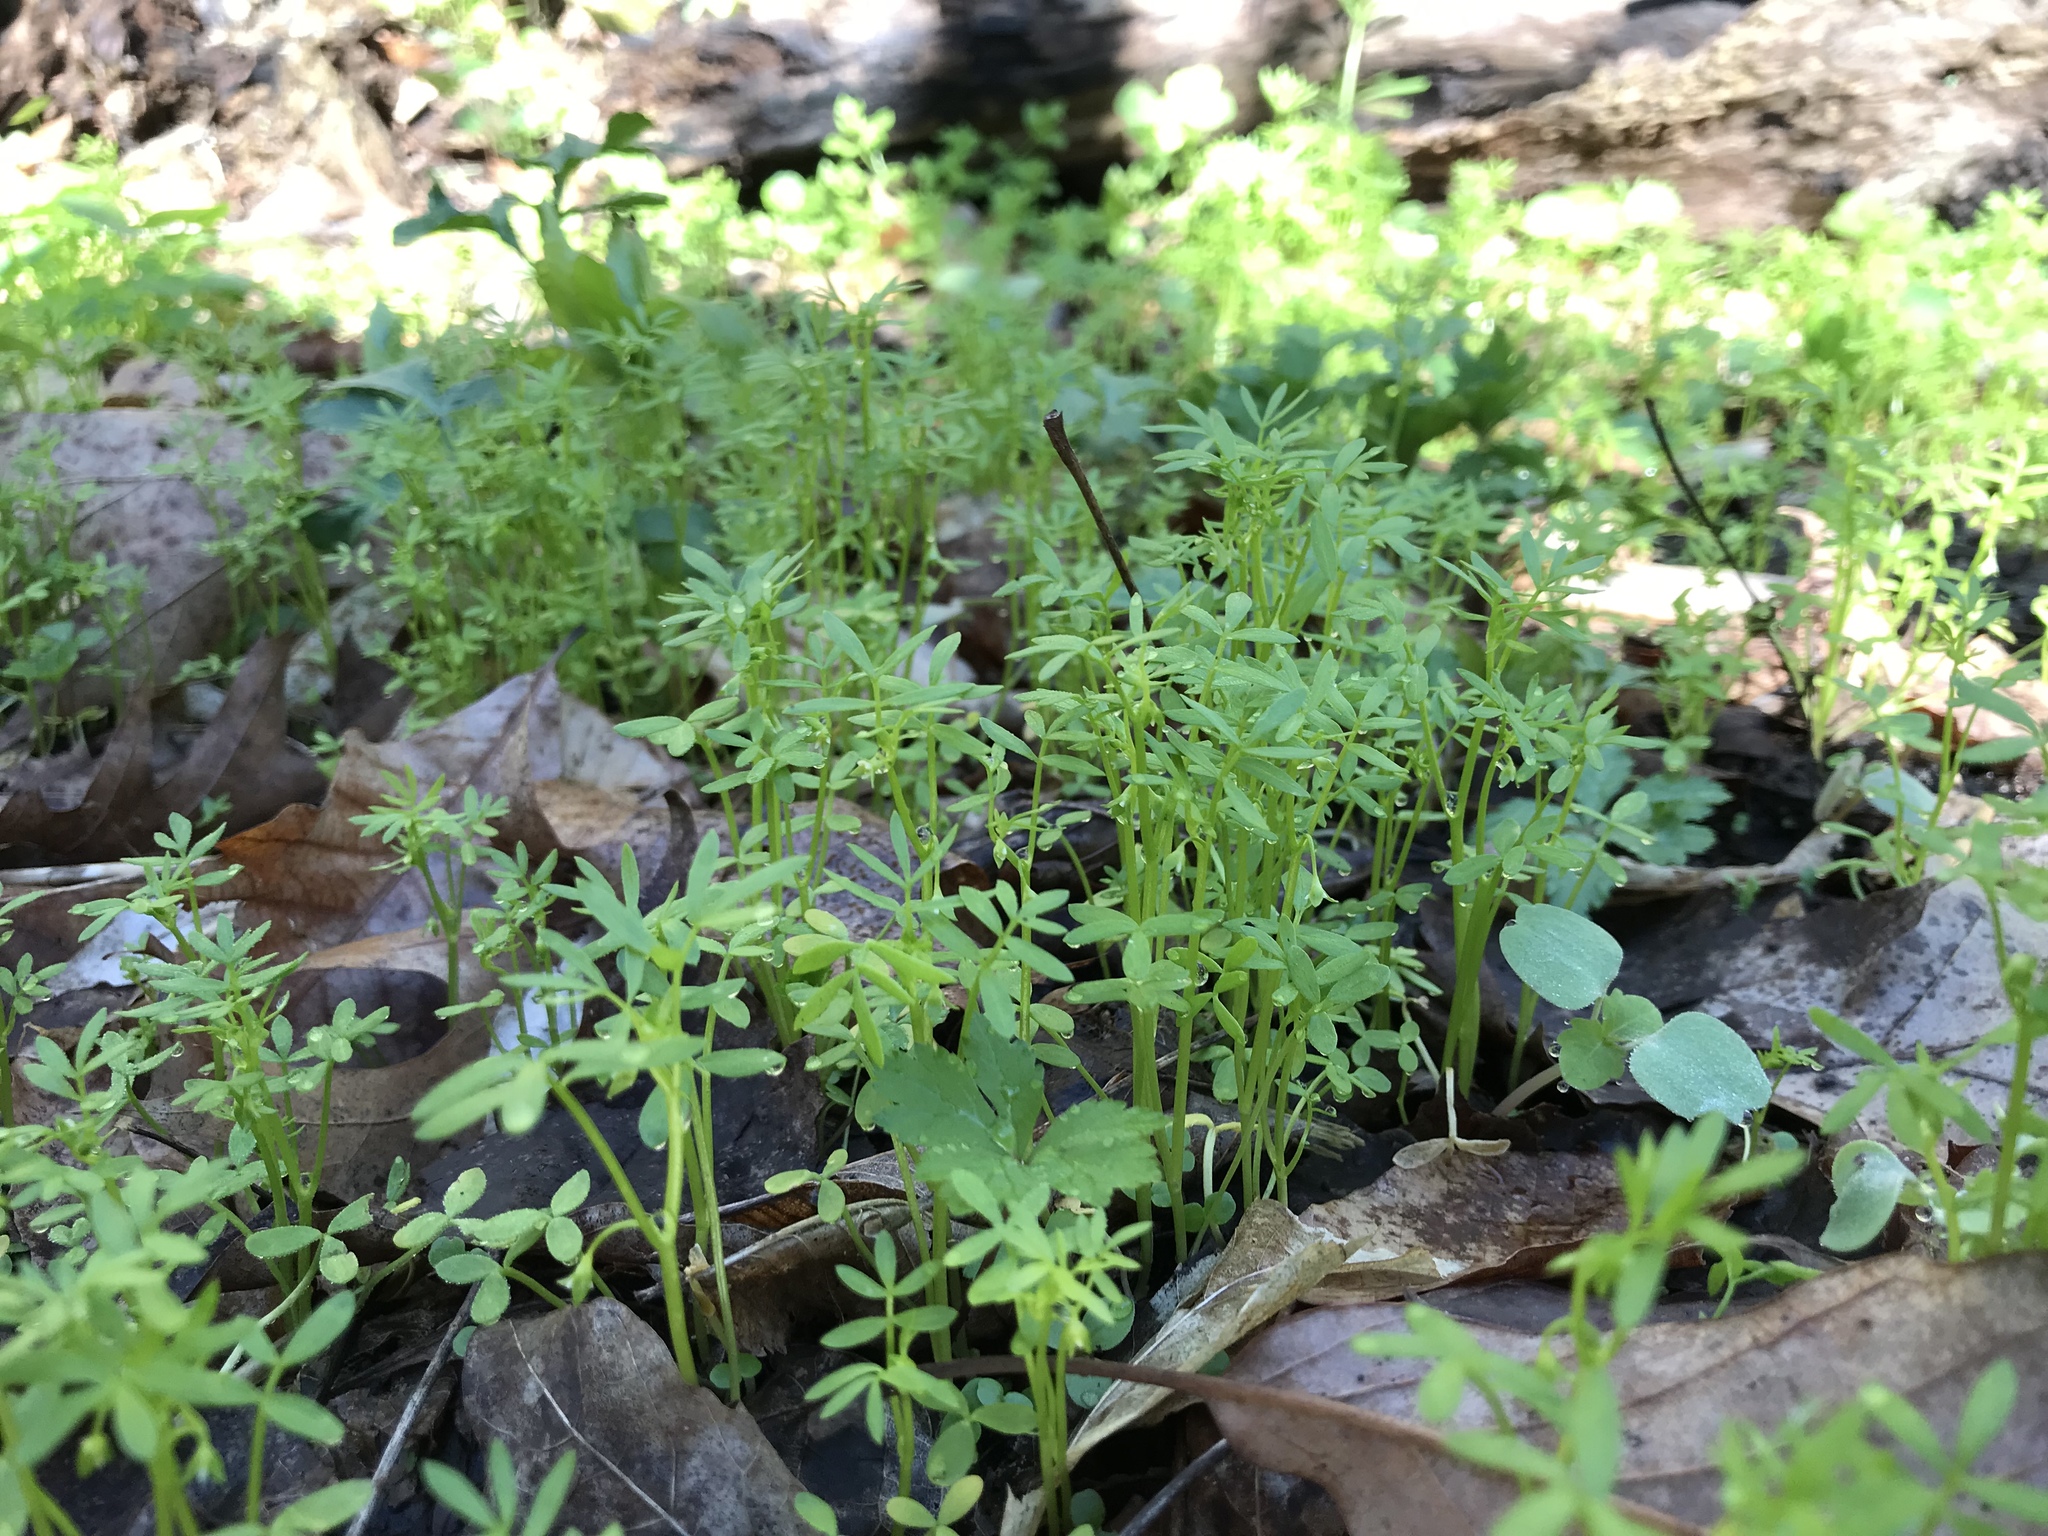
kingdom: Plantae
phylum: Tracheophyta
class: Magnoliopsida
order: Brassicales
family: Limnanthaceae
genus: Floerkea
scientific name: Floerkea proserpinacoides
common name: False mermaid
